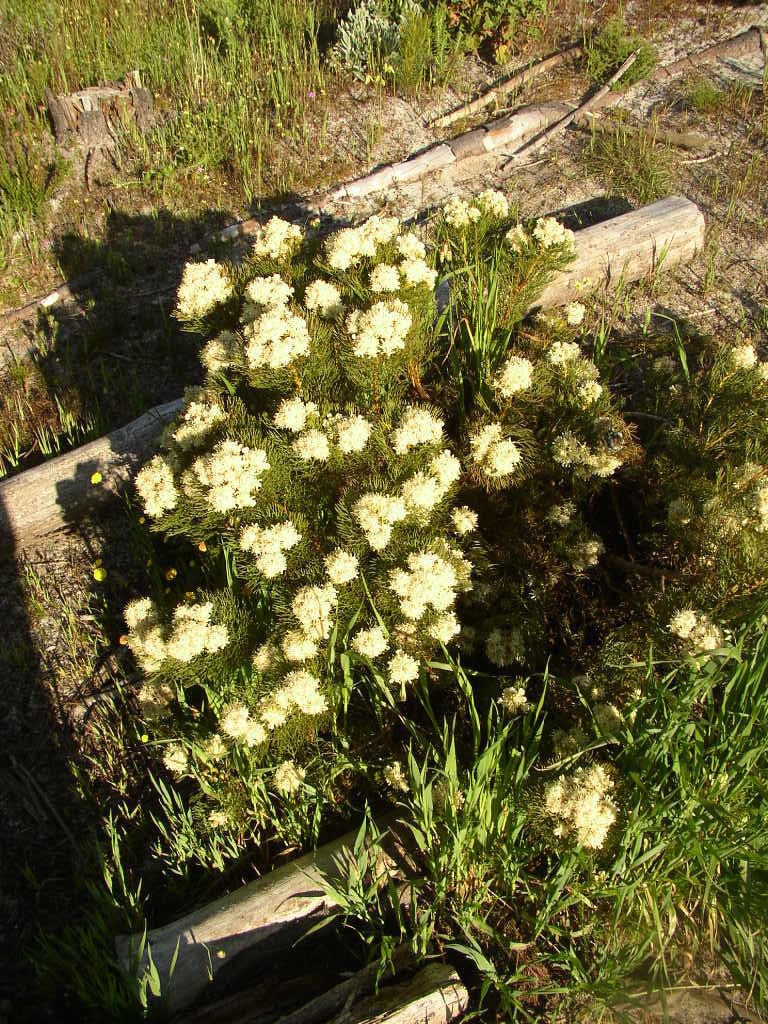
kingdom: Plantae
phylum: Tracheophyta
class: Magnoliopsida
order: Proteales
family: Proteaceae
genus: Serruria
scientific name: Serruria glomerata
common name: Cluster spiderhead
